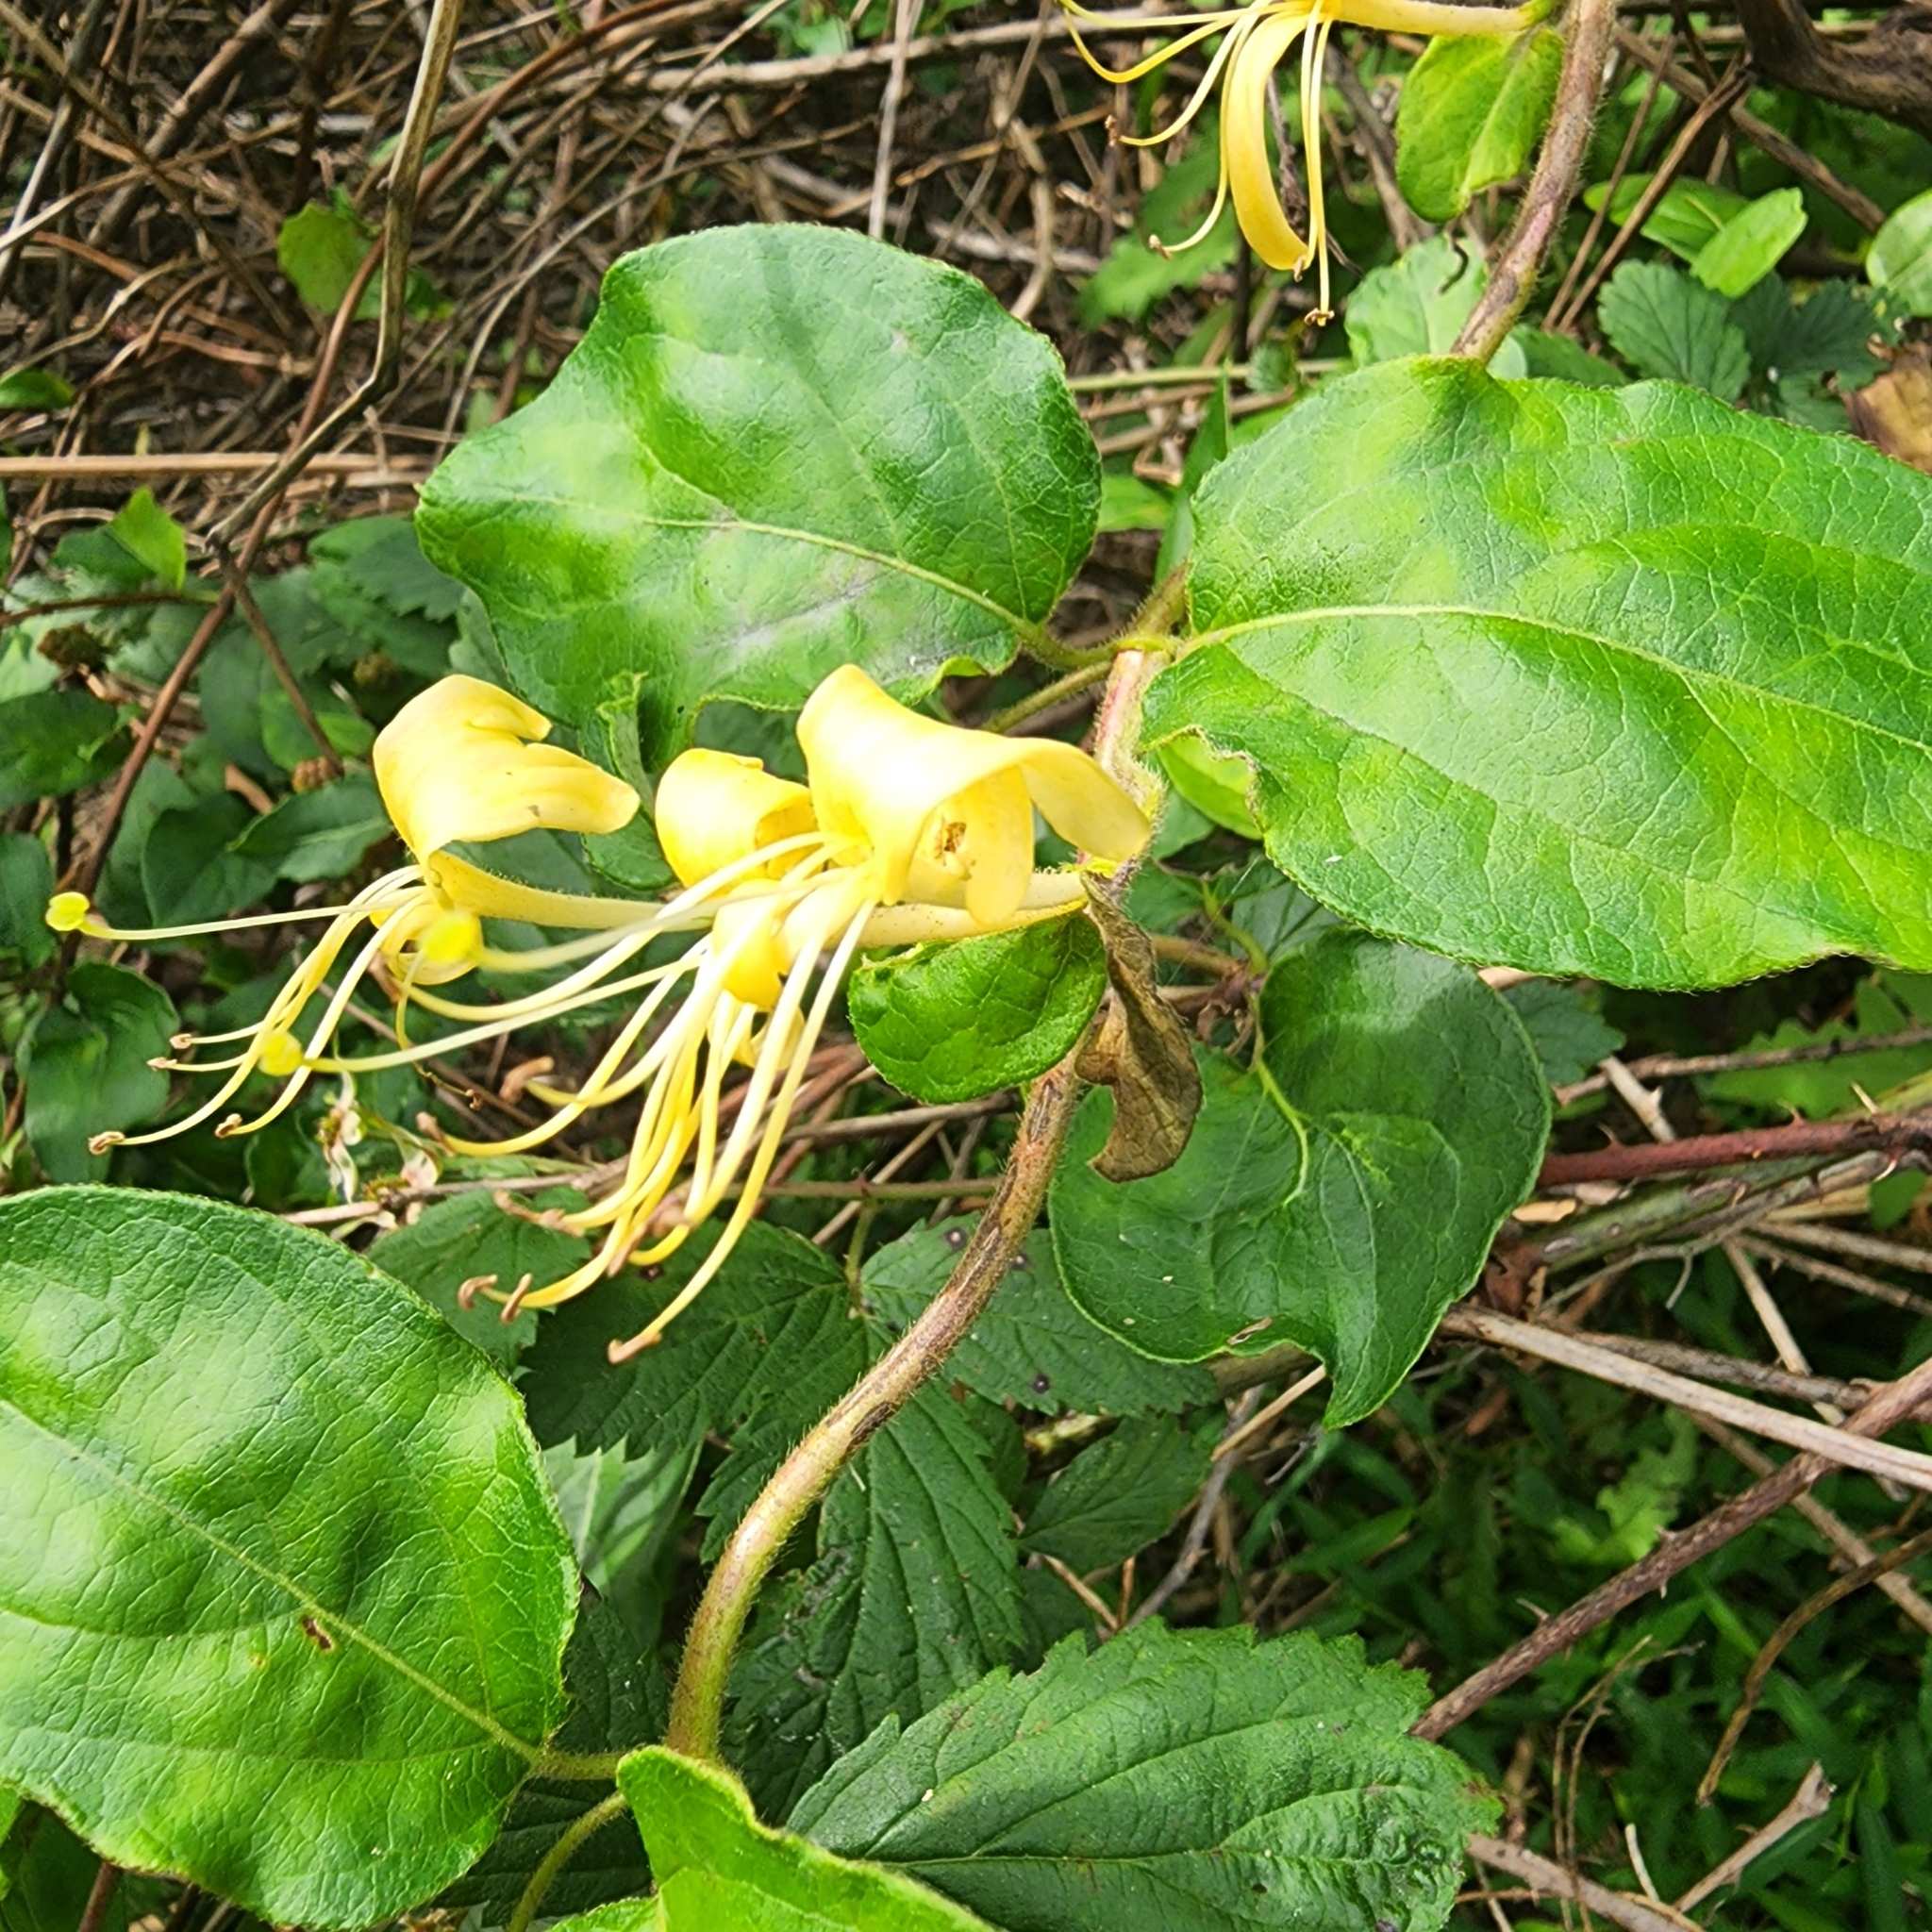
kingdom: Plantae
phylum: Tracheophyta
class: Magnoliopsida
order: Dipsacales
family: Caprifoliaceae
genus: Lonicera
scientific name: Lonicera japonica
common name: Japanese honeysuckle
